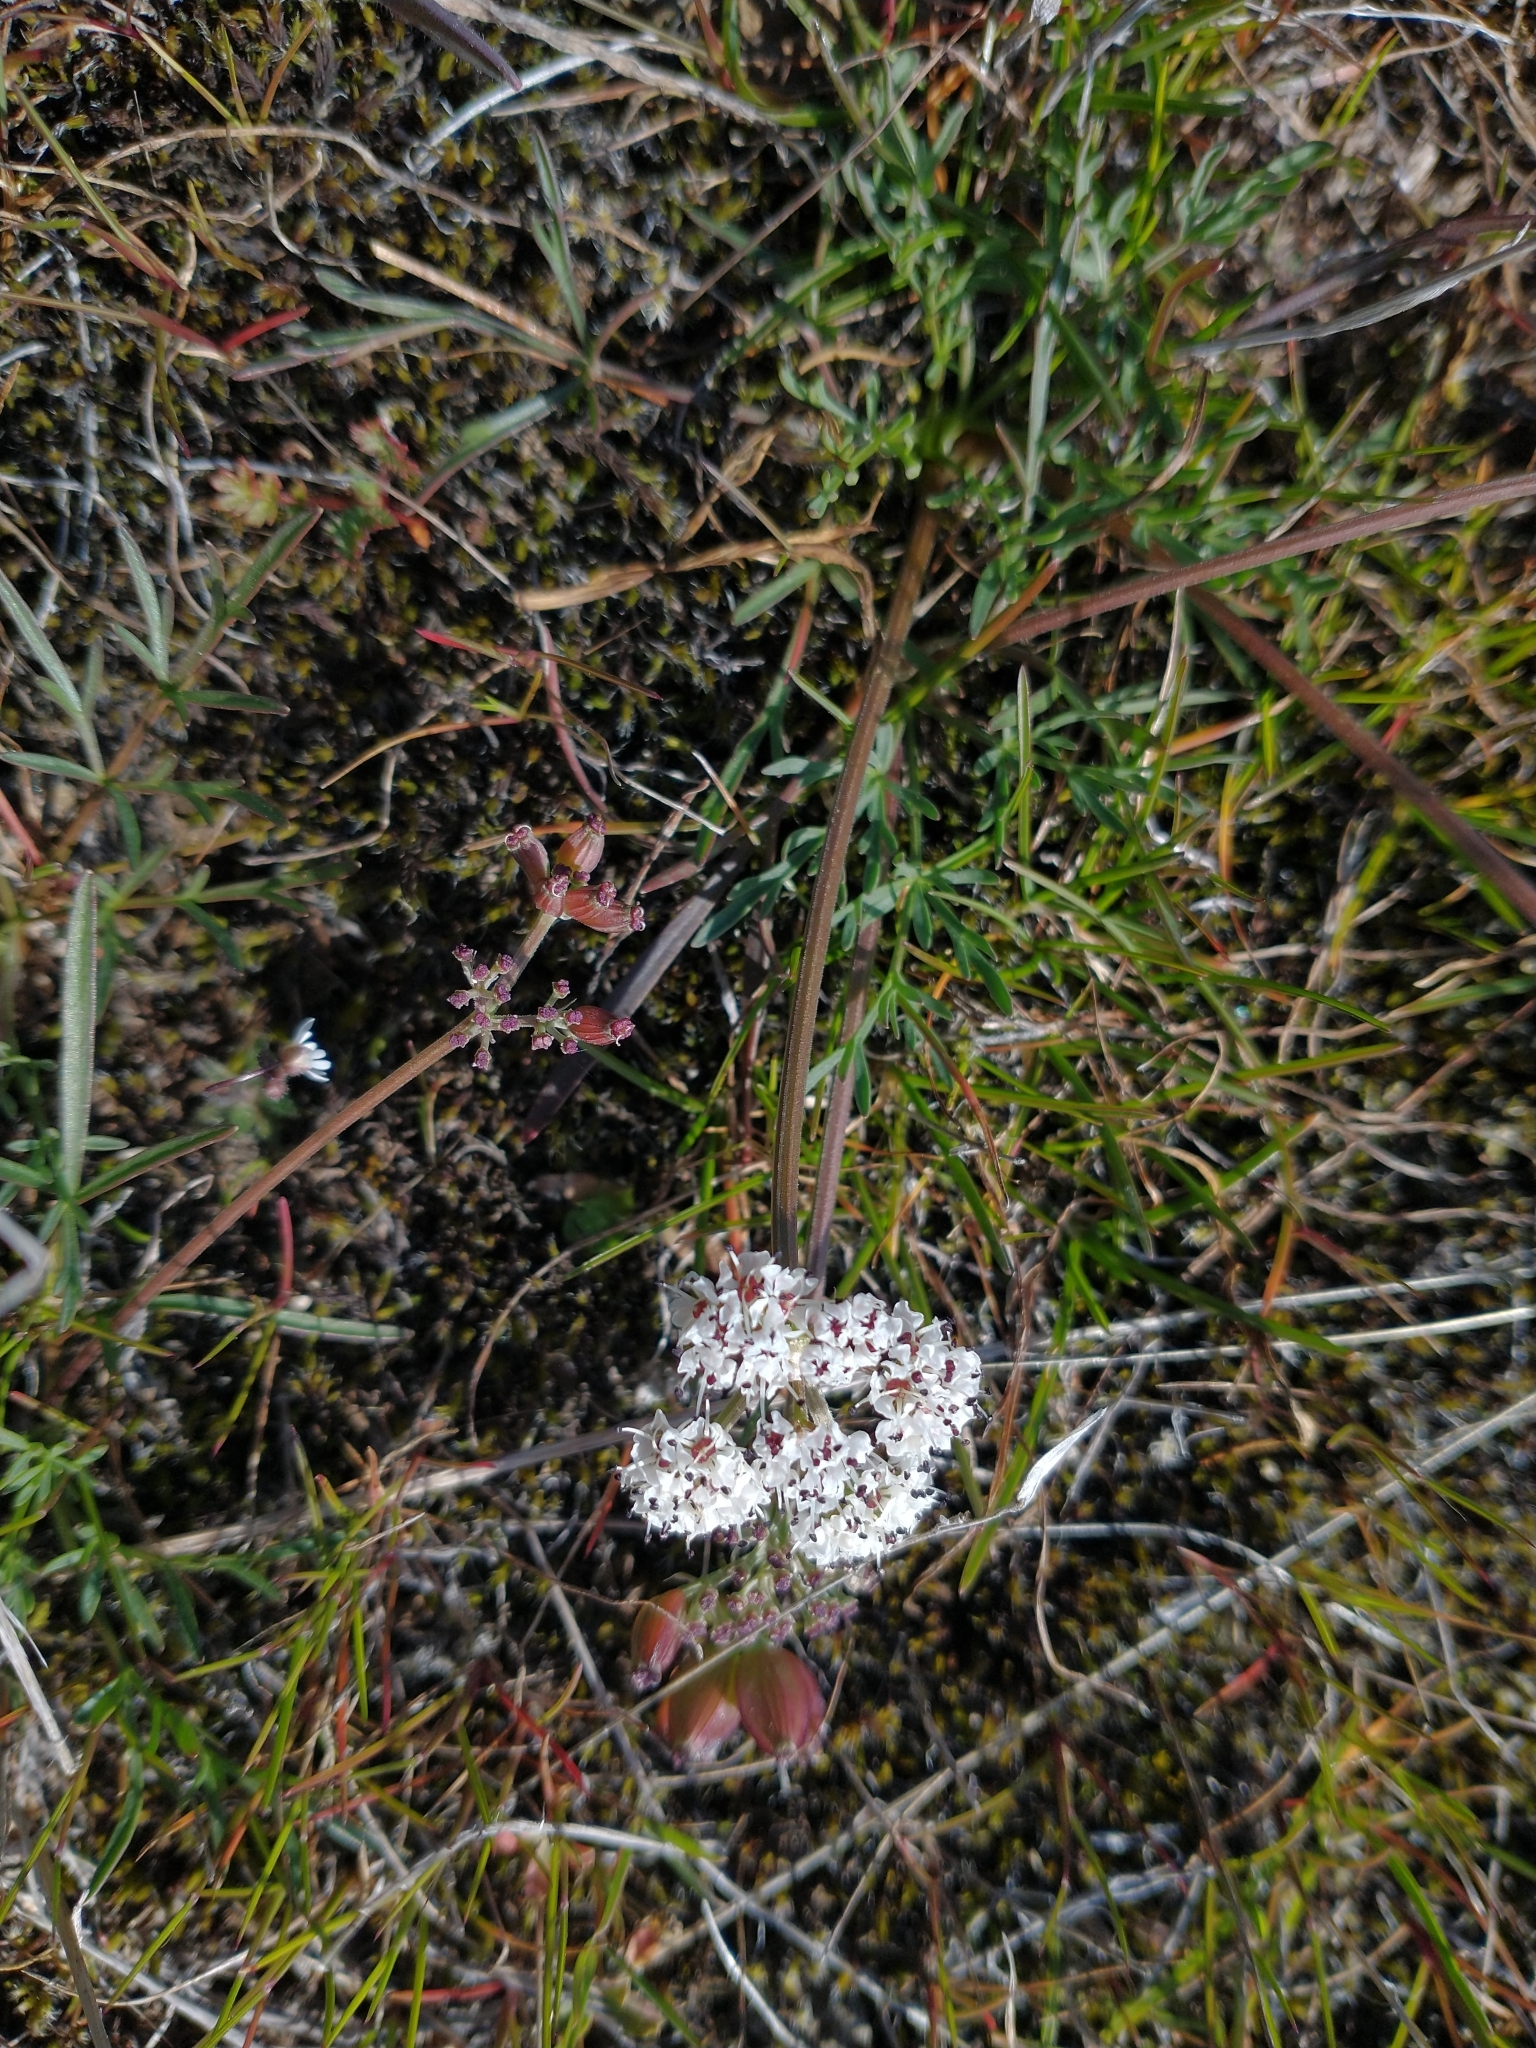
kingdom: Plantae
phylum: Tracheophyta
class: Magnoliopsida
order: Apiales
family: Apiaceae
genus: Lomatium
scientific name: Lomatium gormanii
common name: Gorman's biscuitroot
